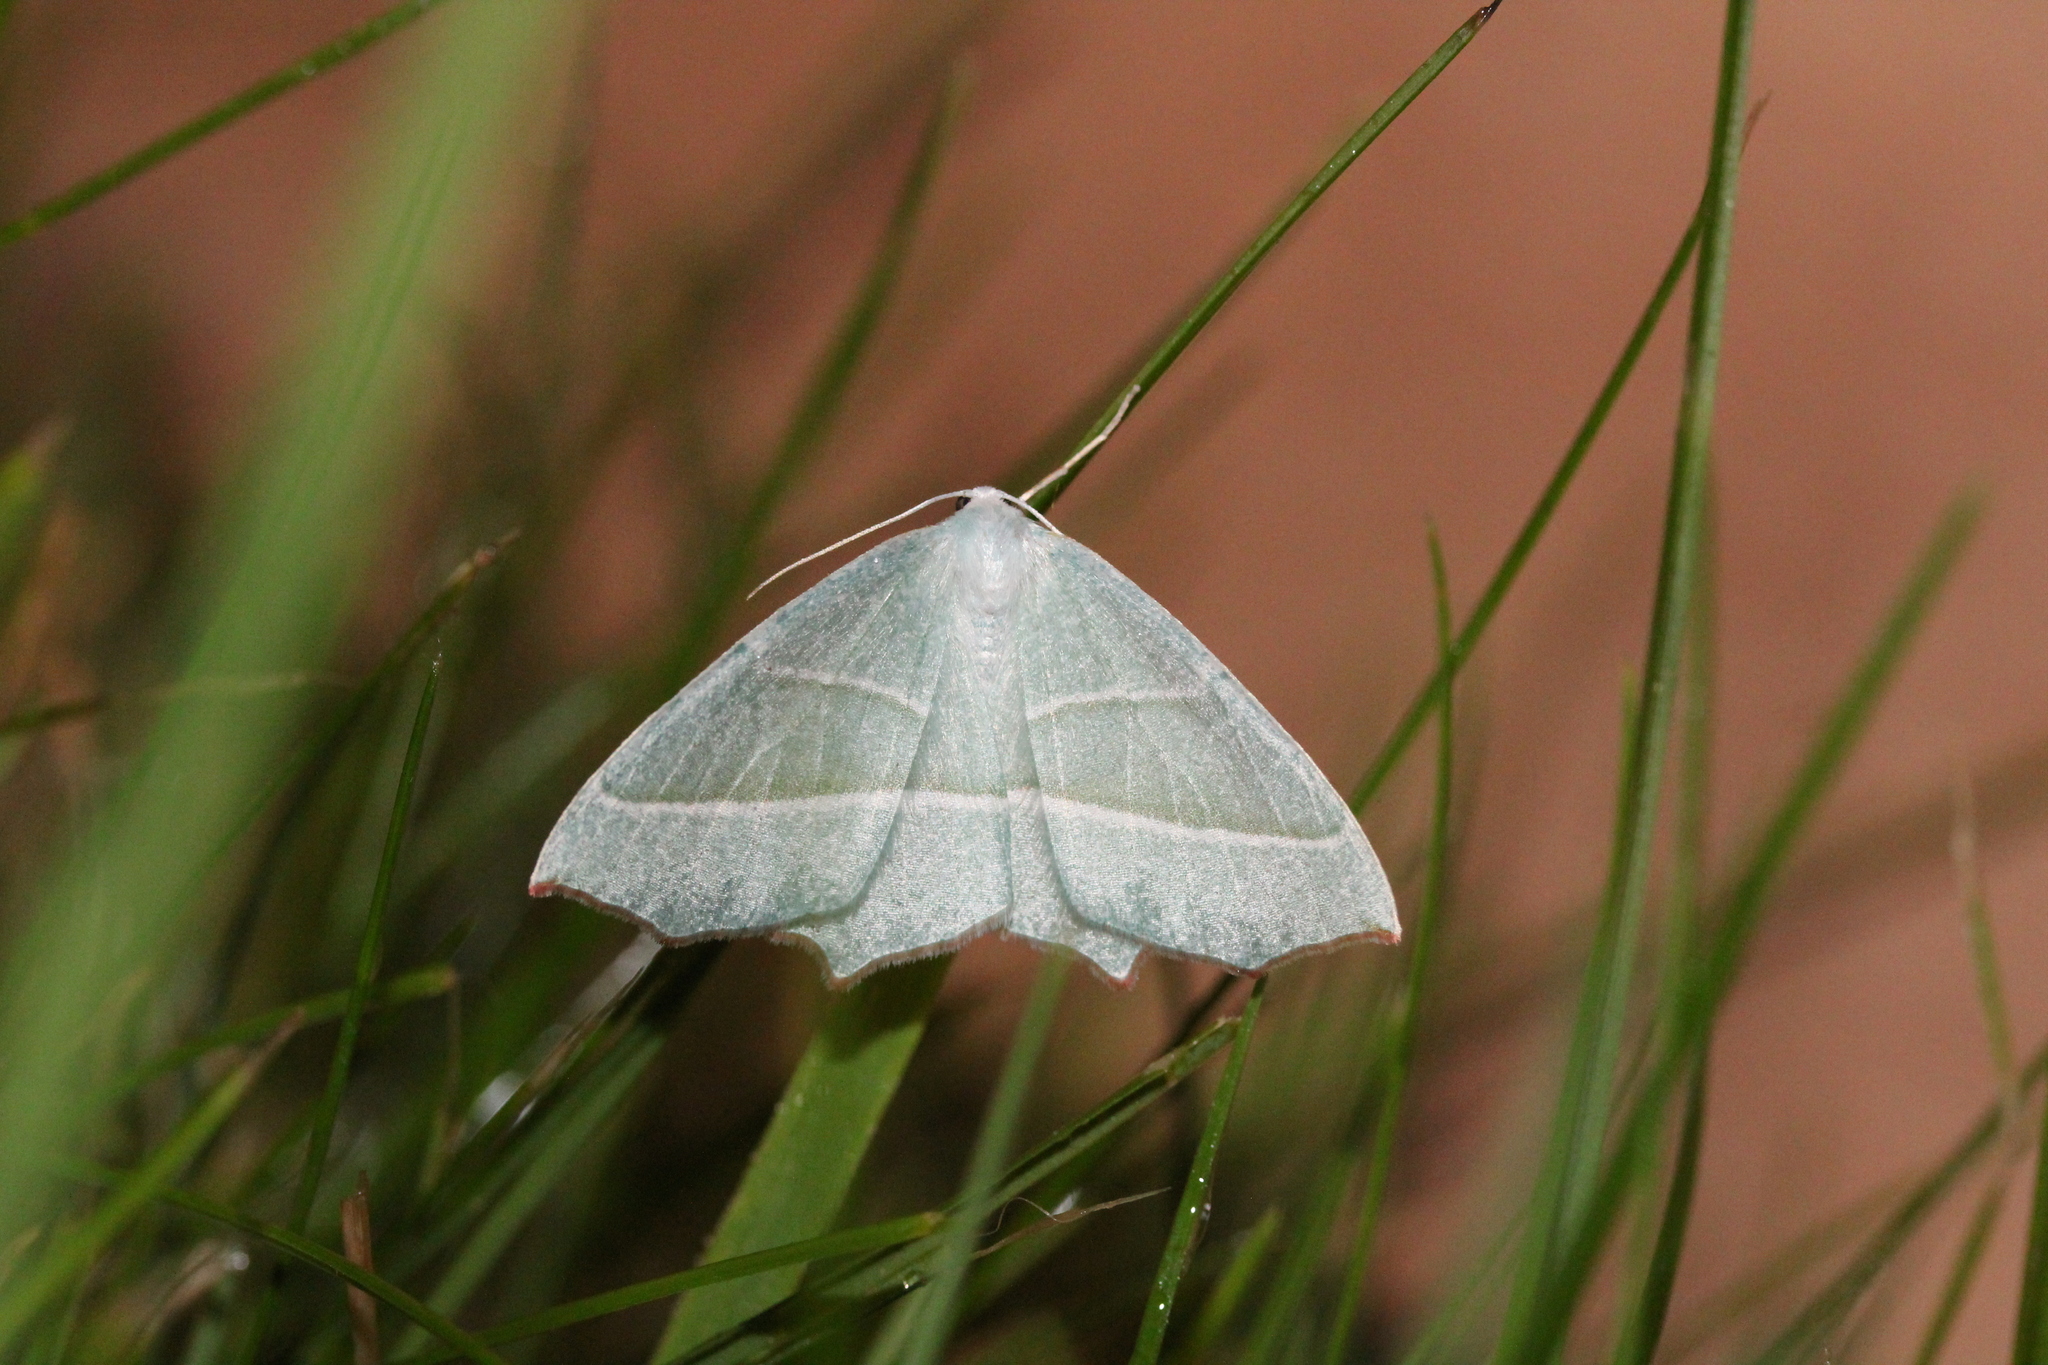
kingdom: Animalia
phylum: Arthropoda
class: Insecta
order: Lepidoptera
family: Geometridae
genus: Campaea
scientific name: Campaea margaritaria
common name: Light emerald
